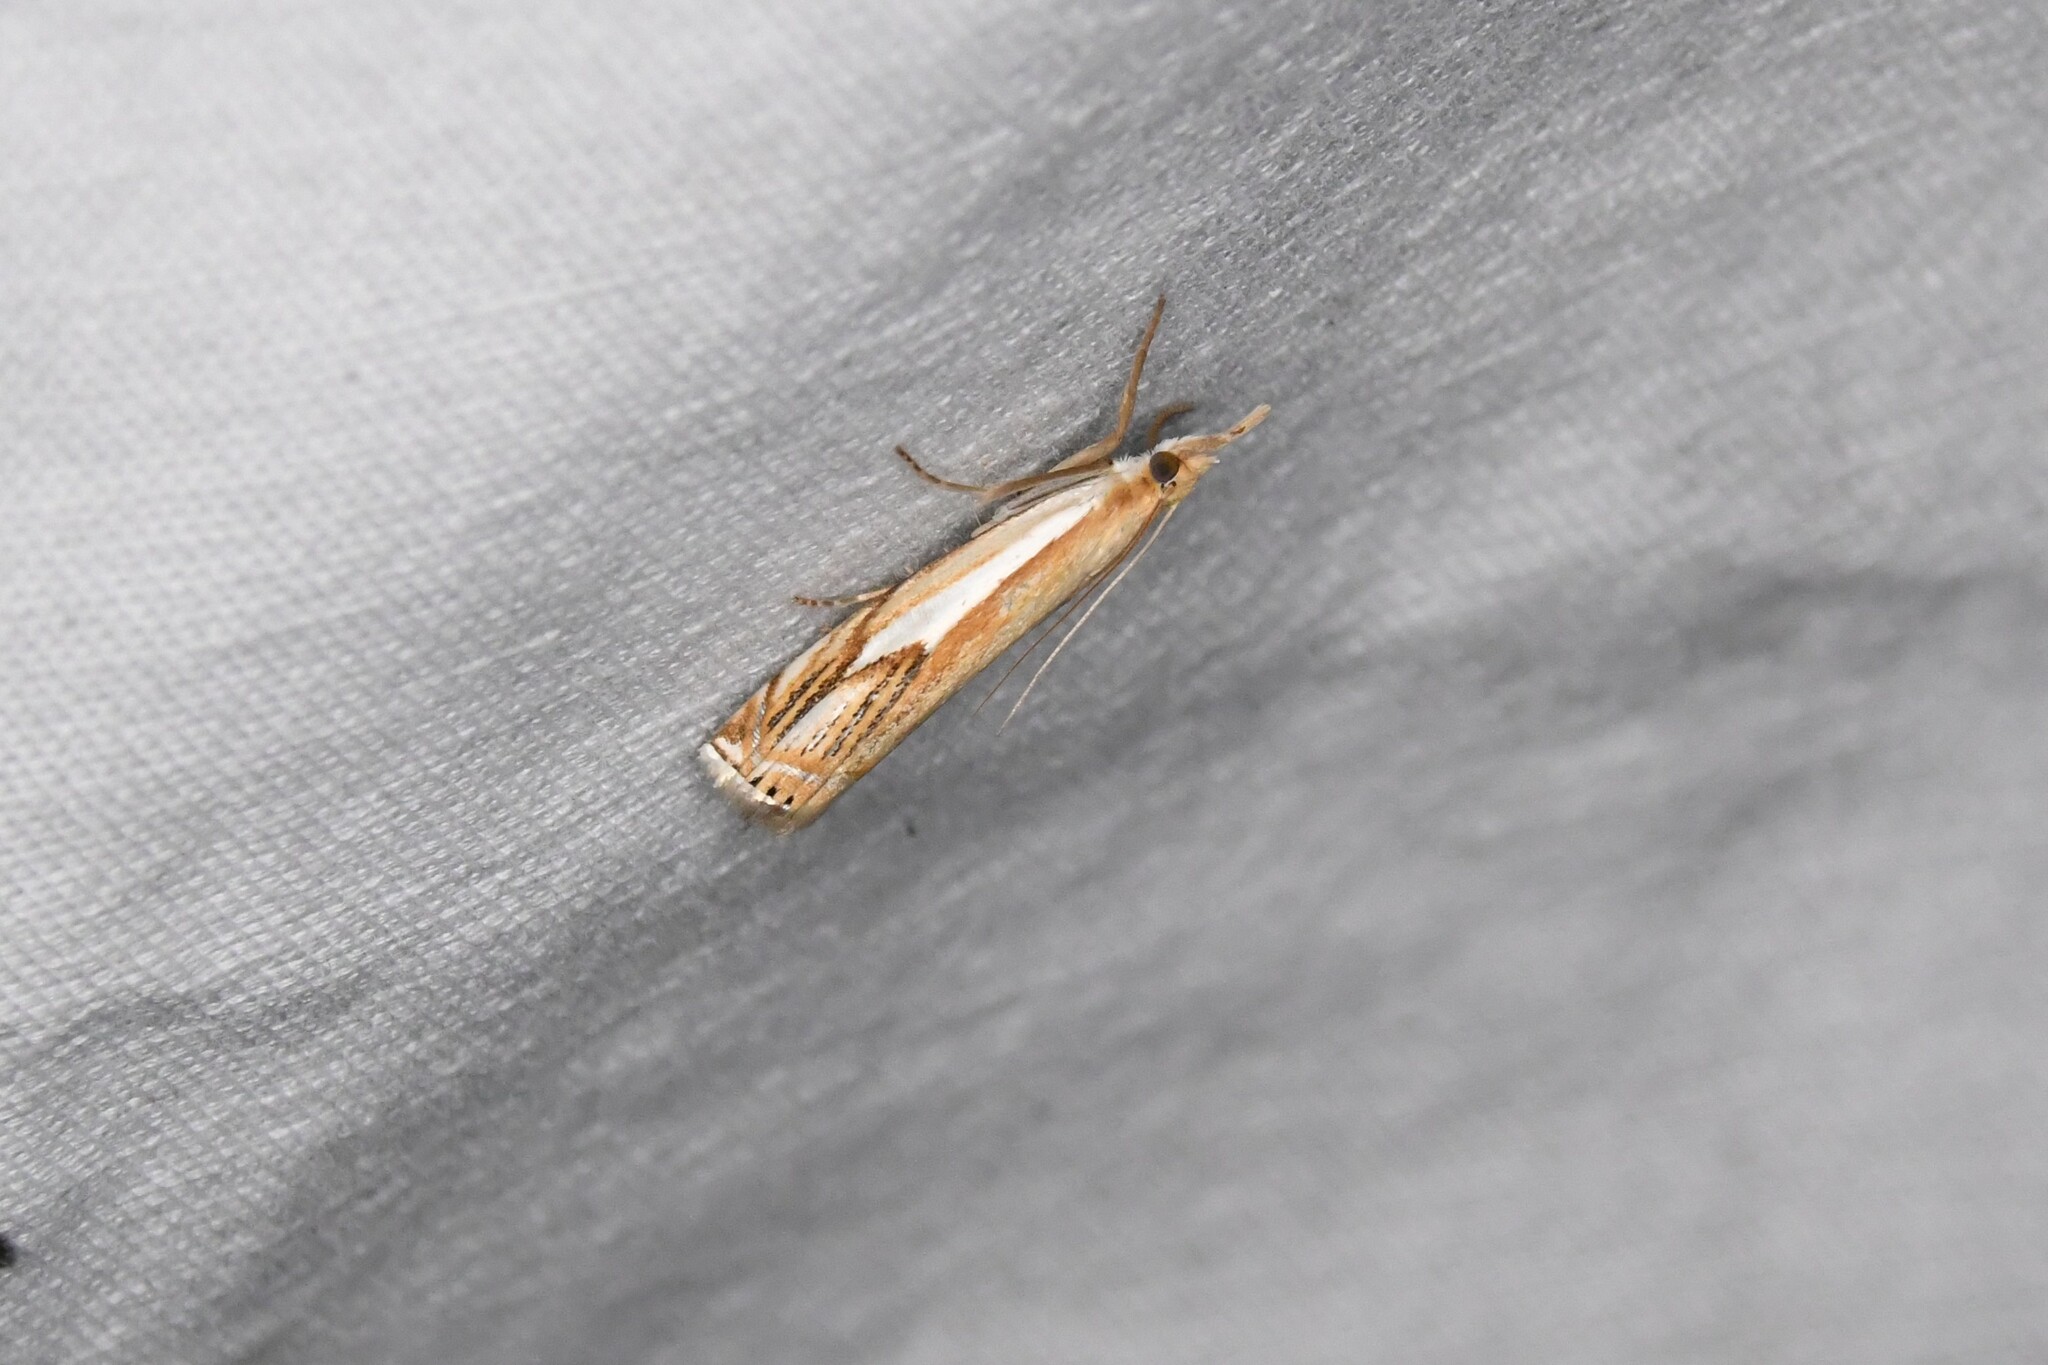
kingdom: Animalia
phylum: Arthropoda
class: Insecta
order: Lepidoptera
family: Crambidae
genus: Crambus
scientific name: Crambus agitatellus
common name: Double-banded grass-veneer
